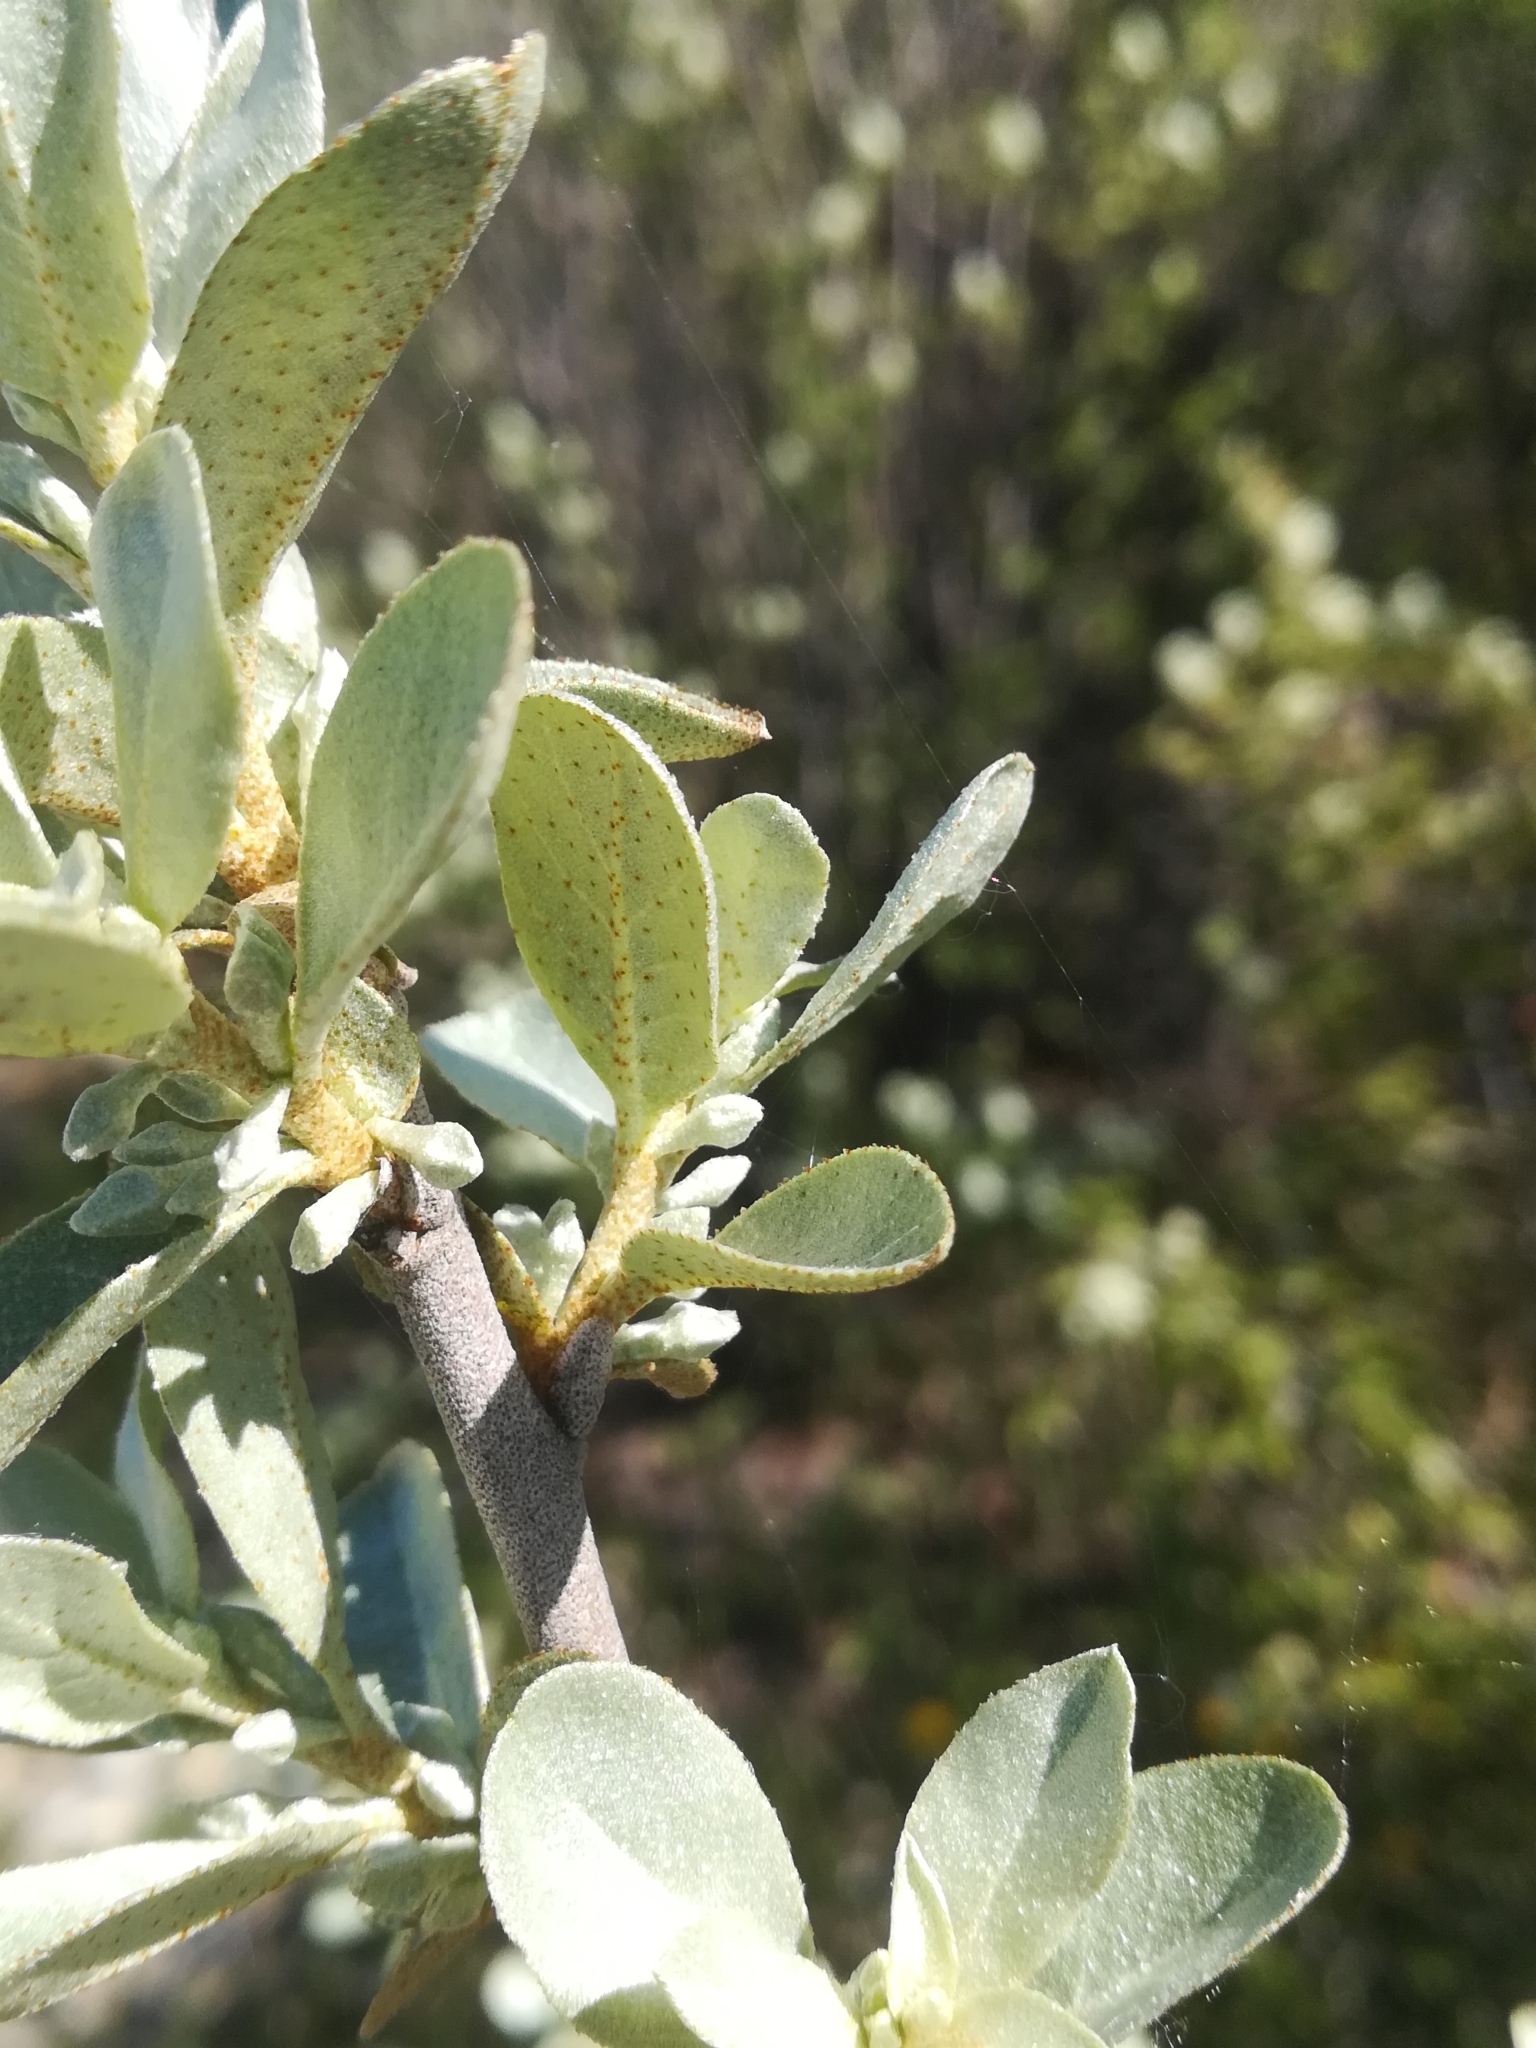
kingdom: Plantae
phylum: Tracheophyta
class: Magnoliopsida
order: Rosales
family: Elaeagnaceae
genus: Elaeagnus
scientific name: Elaeagnus commutata
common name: Silverberry
